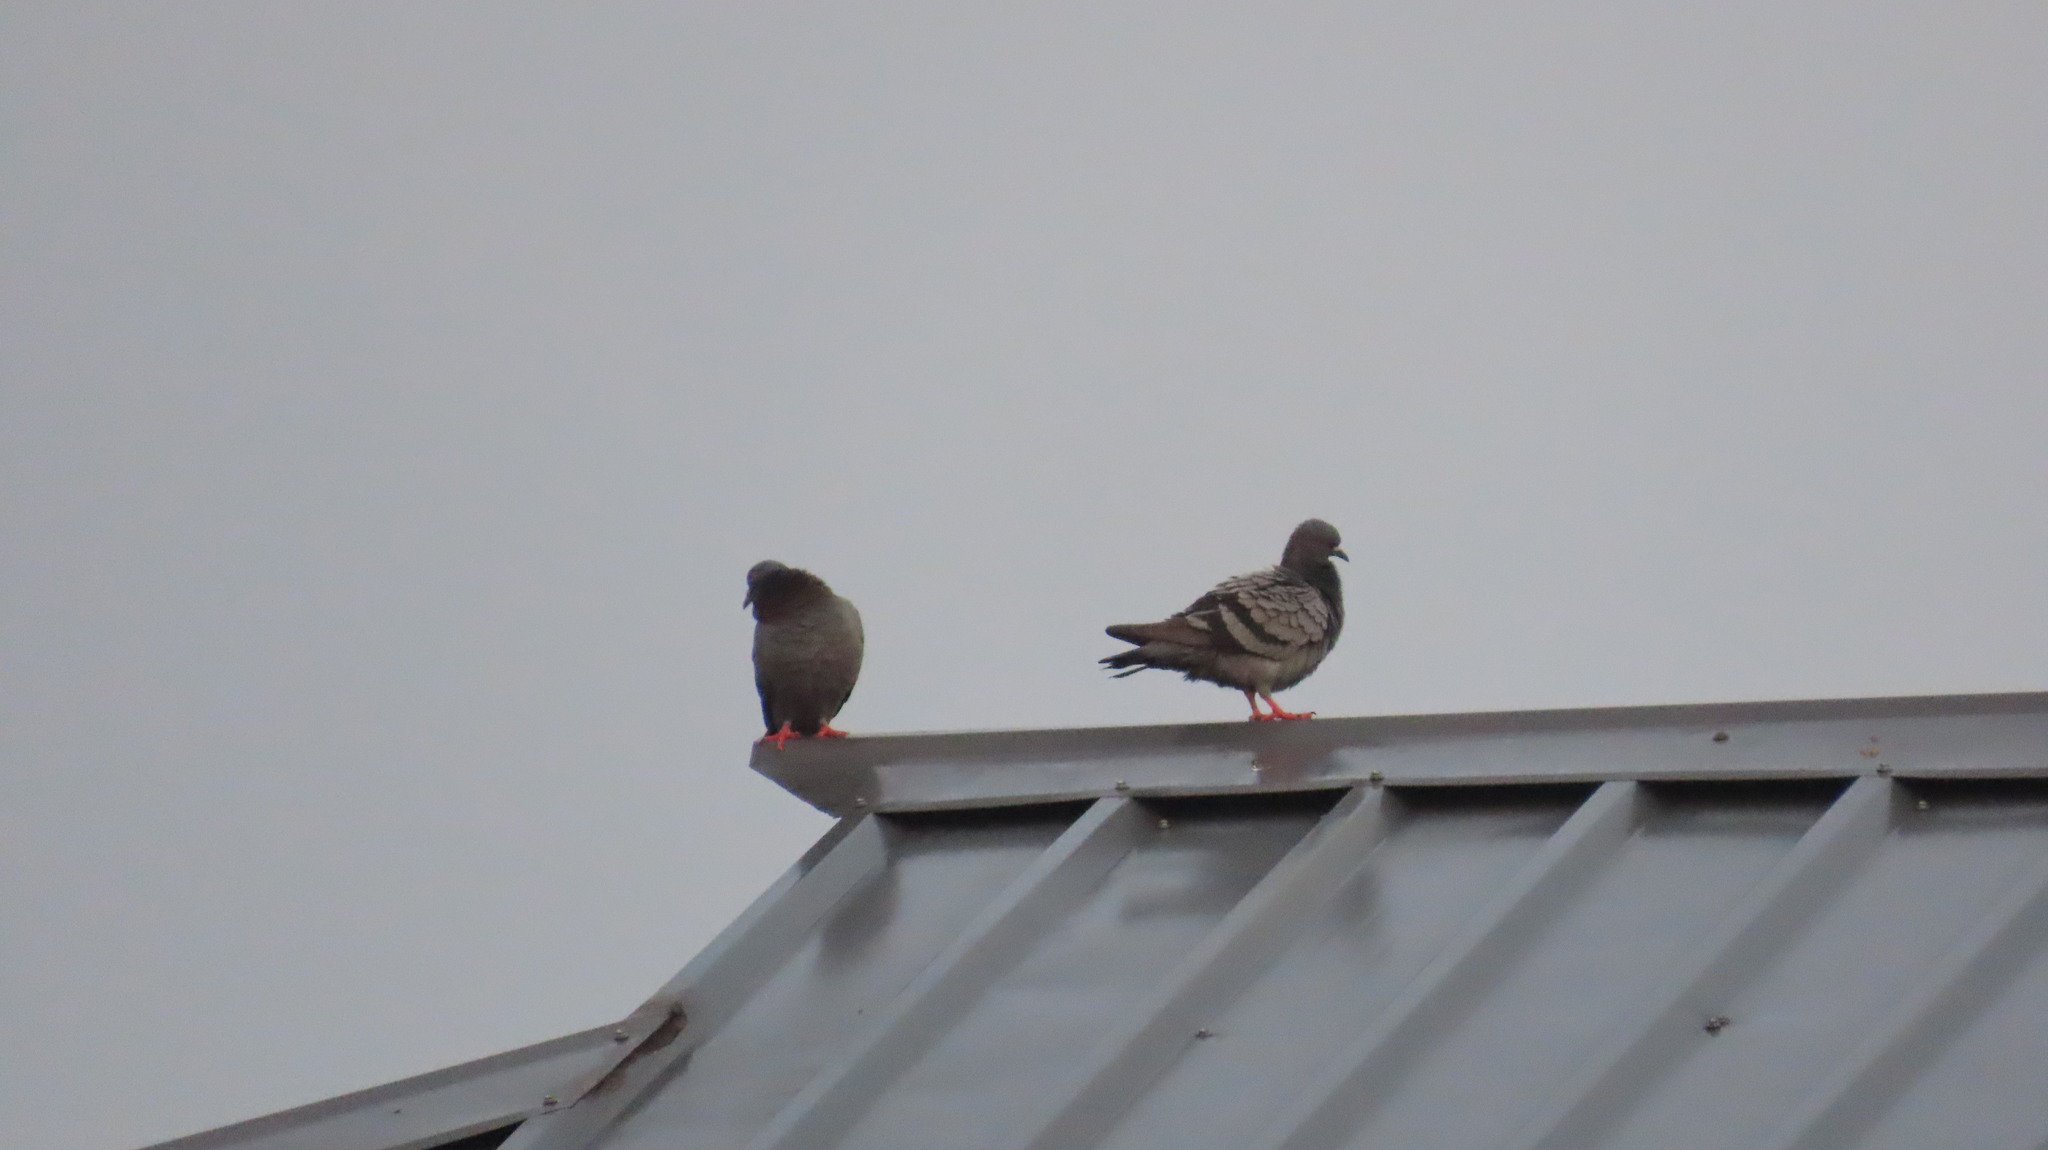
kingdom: Animalia
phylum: Chordata
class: Aves
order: Columbiformes
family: Columbidae
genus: Columba
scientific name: Columba livia
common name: Rock pigeon
